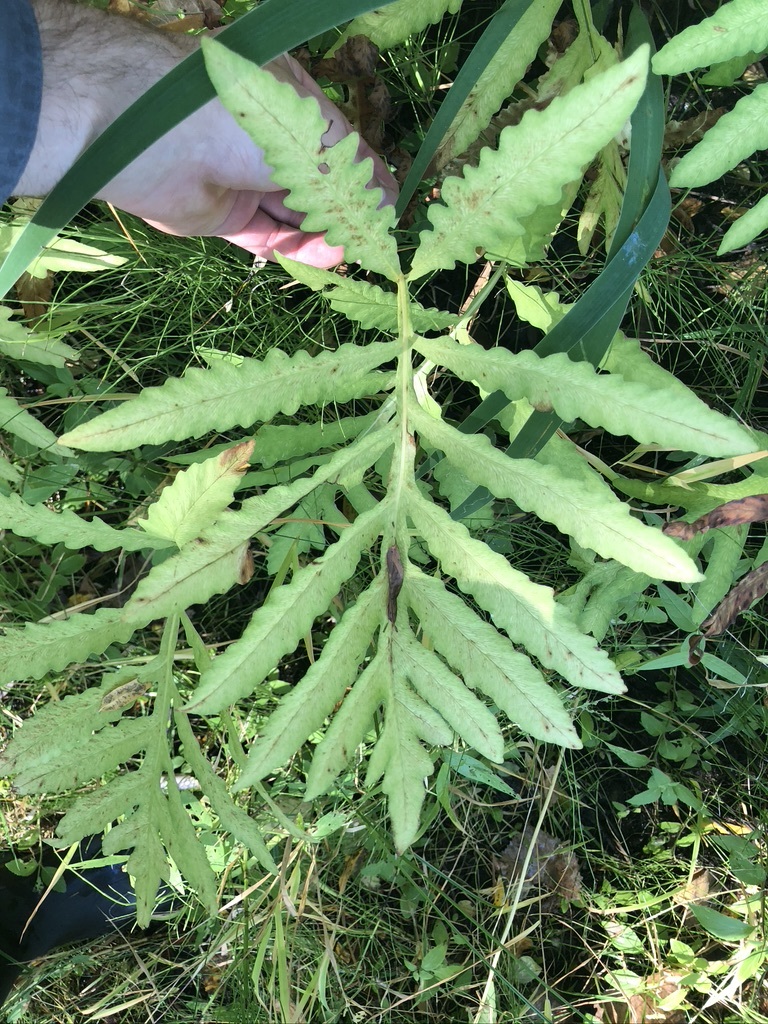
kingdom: Plantae
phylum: Tracheophyta
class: Polypodiopsida
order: Polypodiales
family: Onocleaceae
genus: Onoclea
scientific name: Onoclea sensibilis
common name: Sensitive fern
